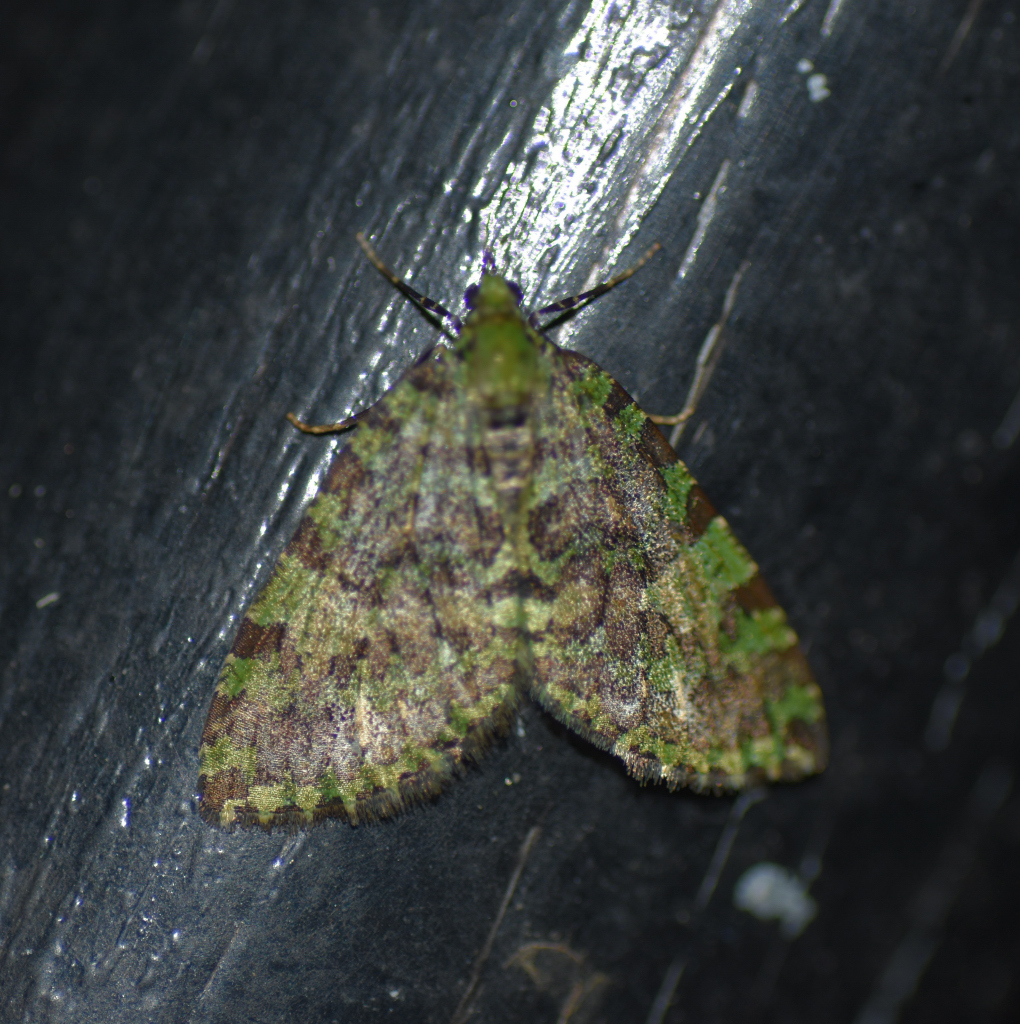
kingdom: Animalia
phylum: Arthropoda
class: Insecta
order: Lepidoptera
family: Geometridae
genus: Hydriomena
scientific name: Hydriomena cydippe
